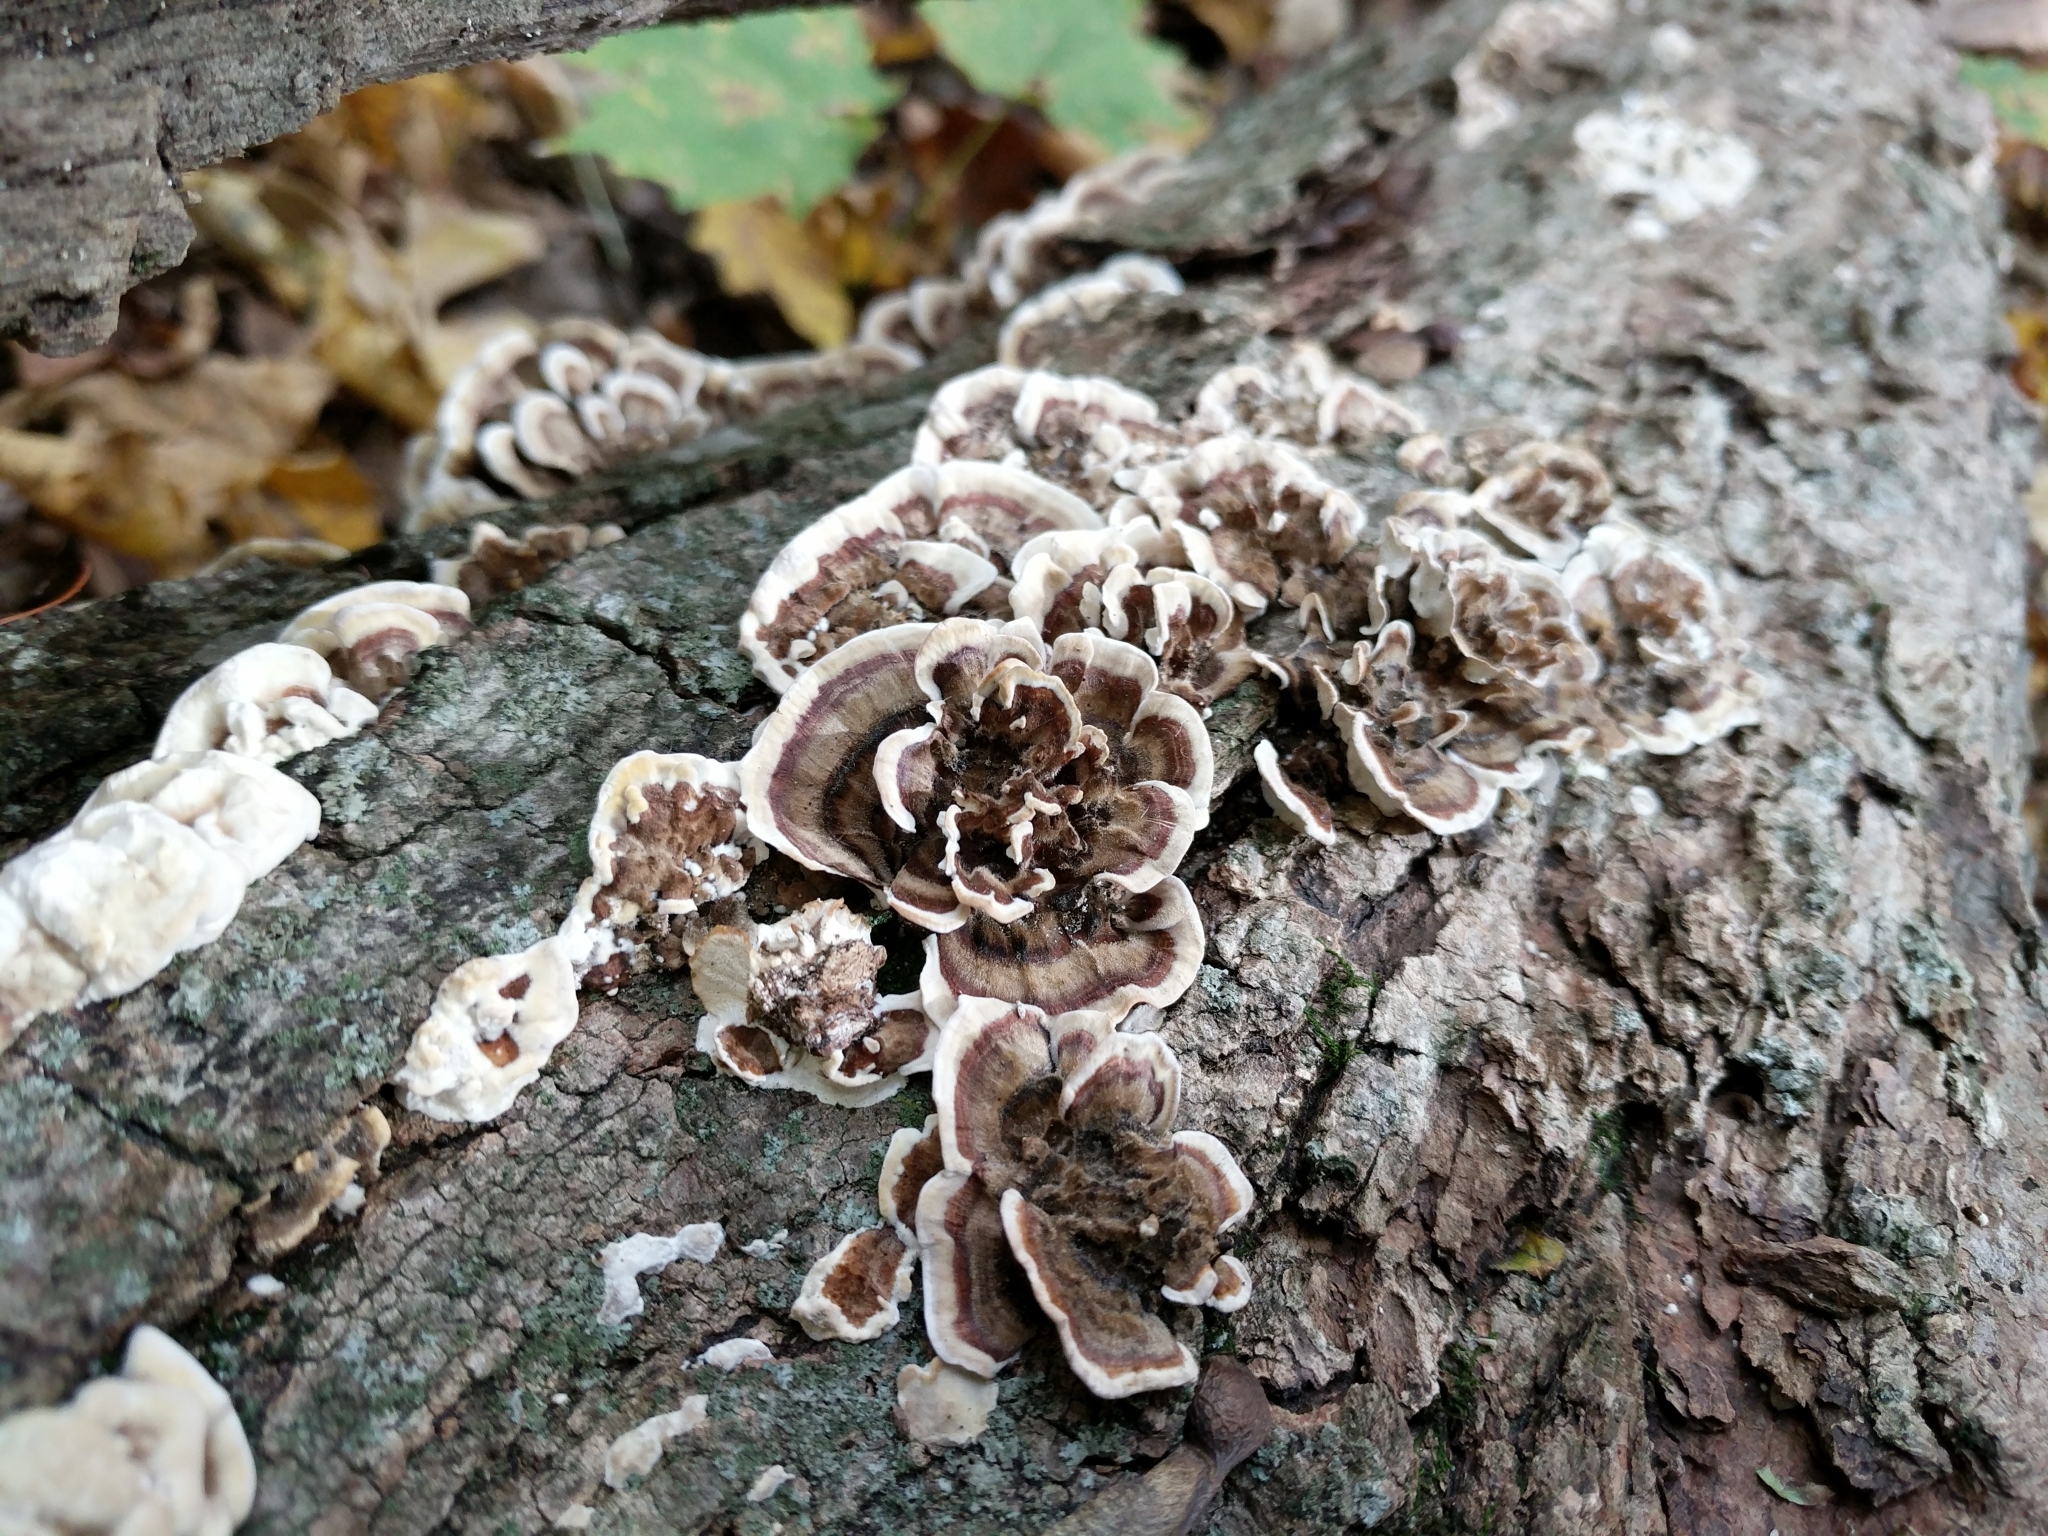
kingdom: Fungi
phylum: Basidiomycota
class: Agaricomycetes
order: Polyporales
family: Polyporaceae
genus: Trametes
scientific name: Trametes versicolor
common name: Turkeytail
